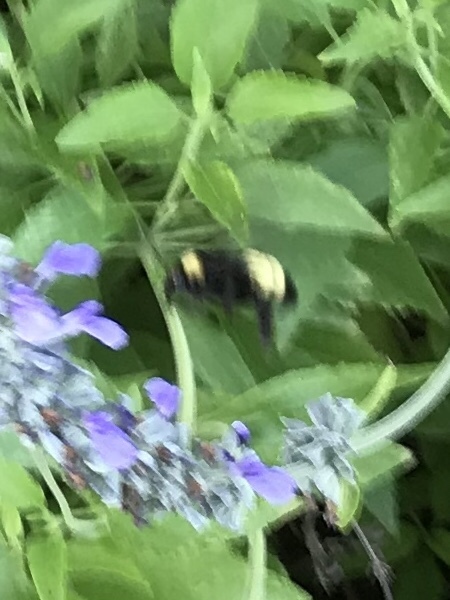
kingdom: Animalia
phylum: Arthropoda
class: Insecta
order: Hymenoptera
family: Apidae
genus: Bombus
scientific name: Bombus pensylvanicus
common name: Bumble bee
